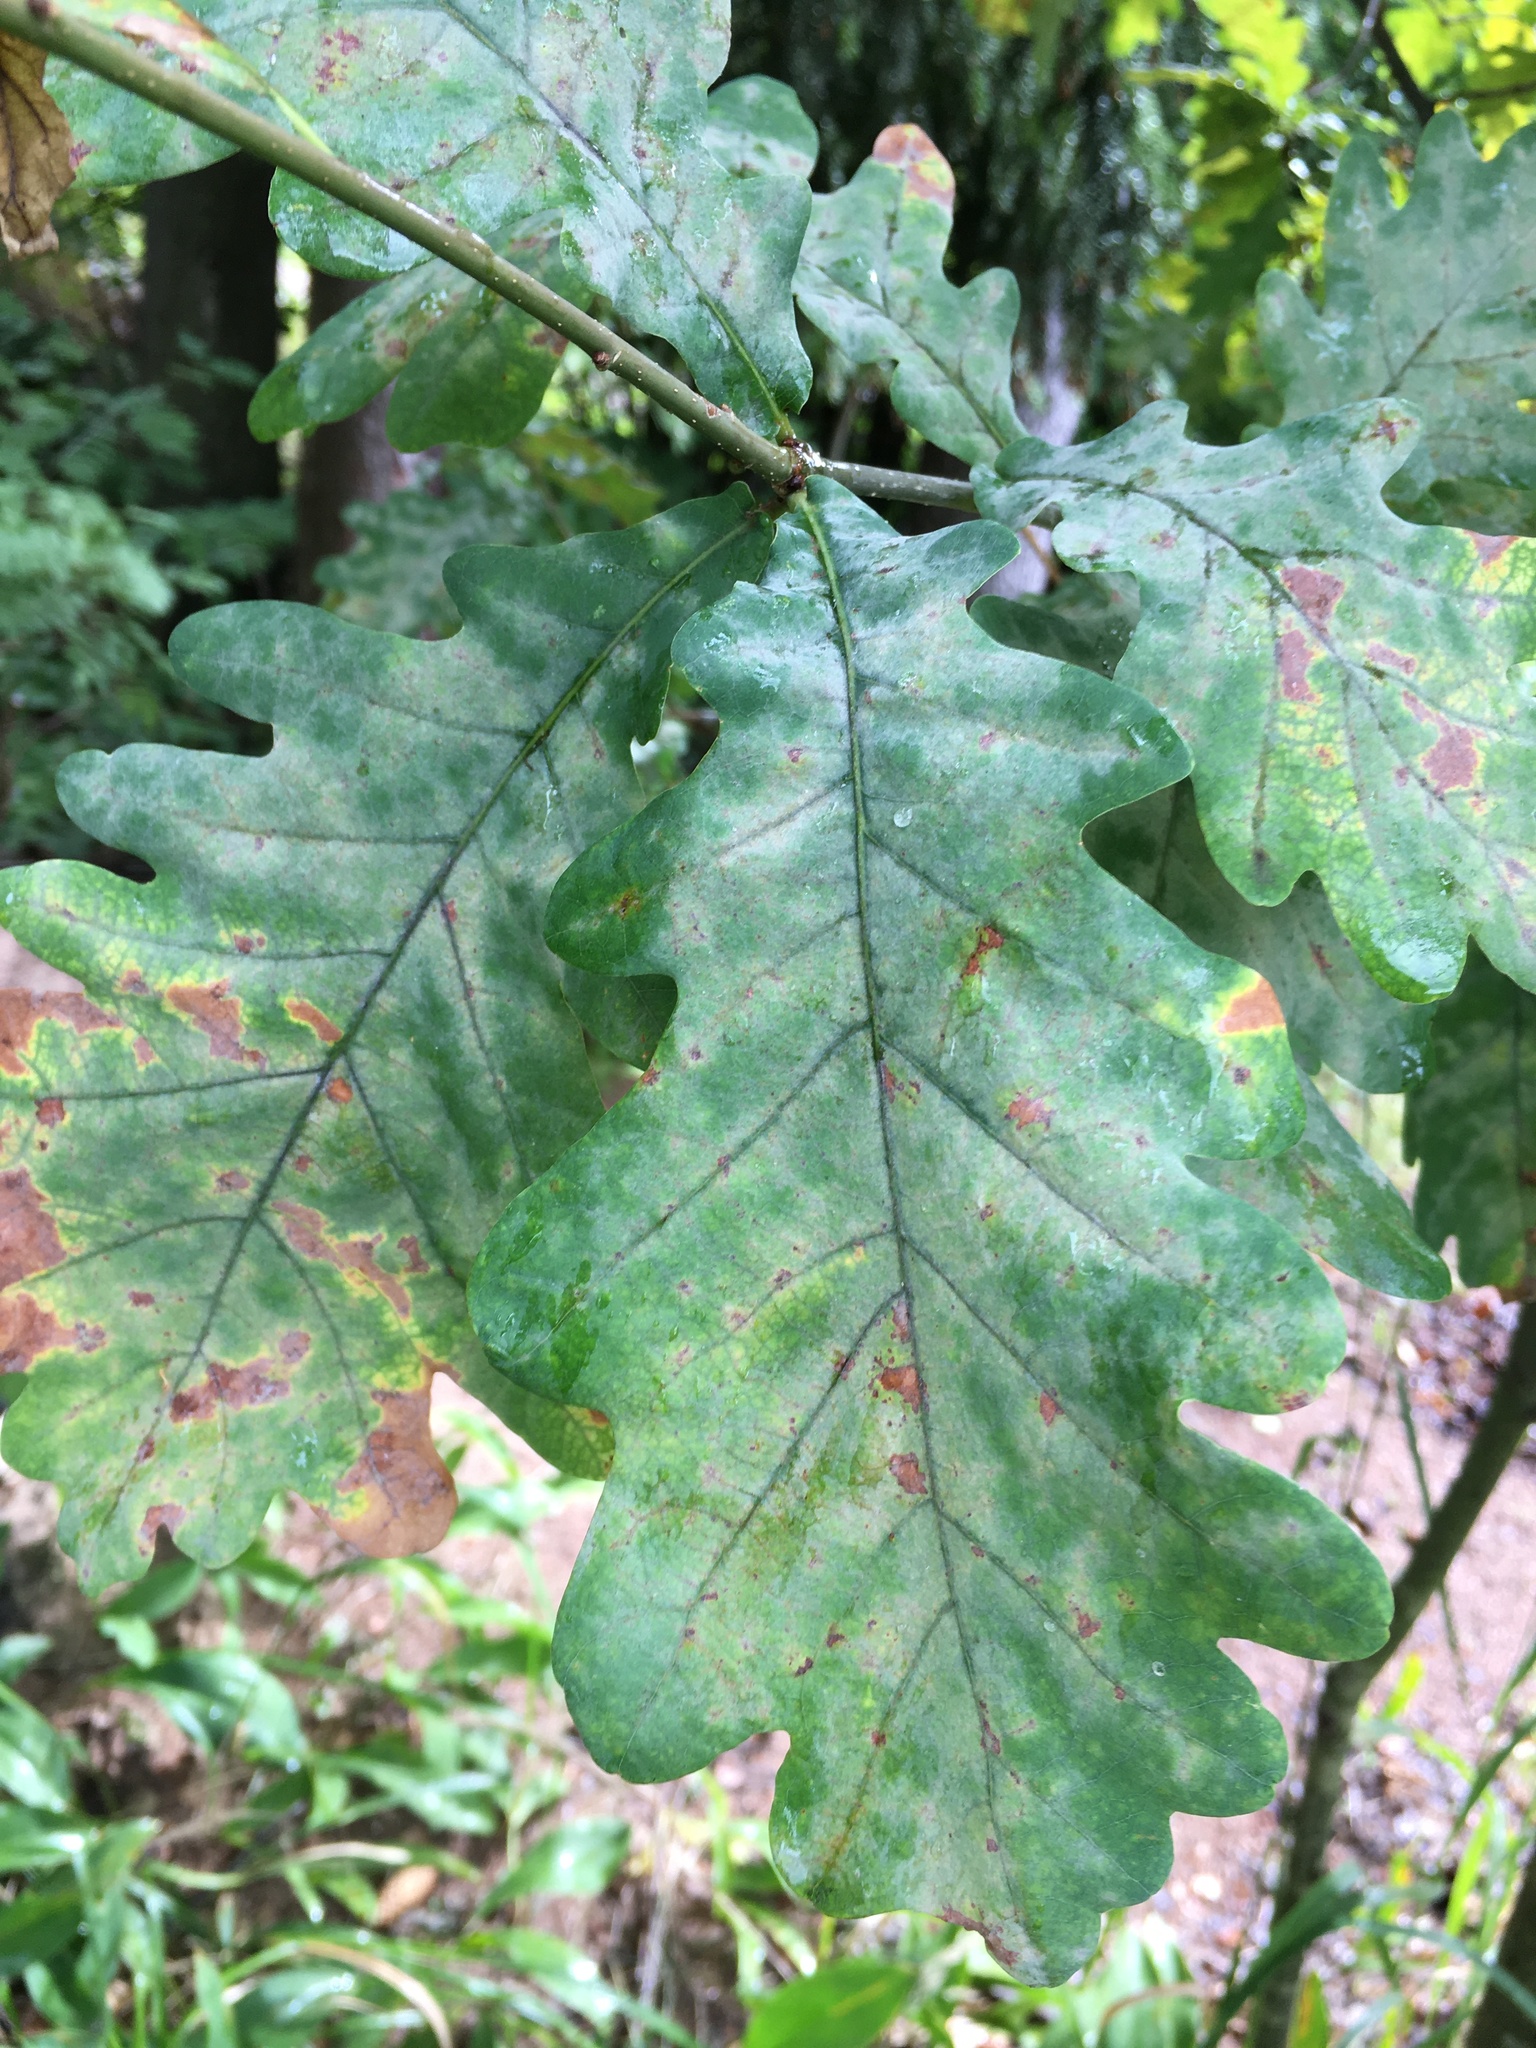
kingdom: Plantae
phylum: Tracheophyta
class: Magnoliopsida
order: Fagales
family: Fagaceae
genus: Quercus
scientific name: Quercus robur
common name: Pedunculate oak
